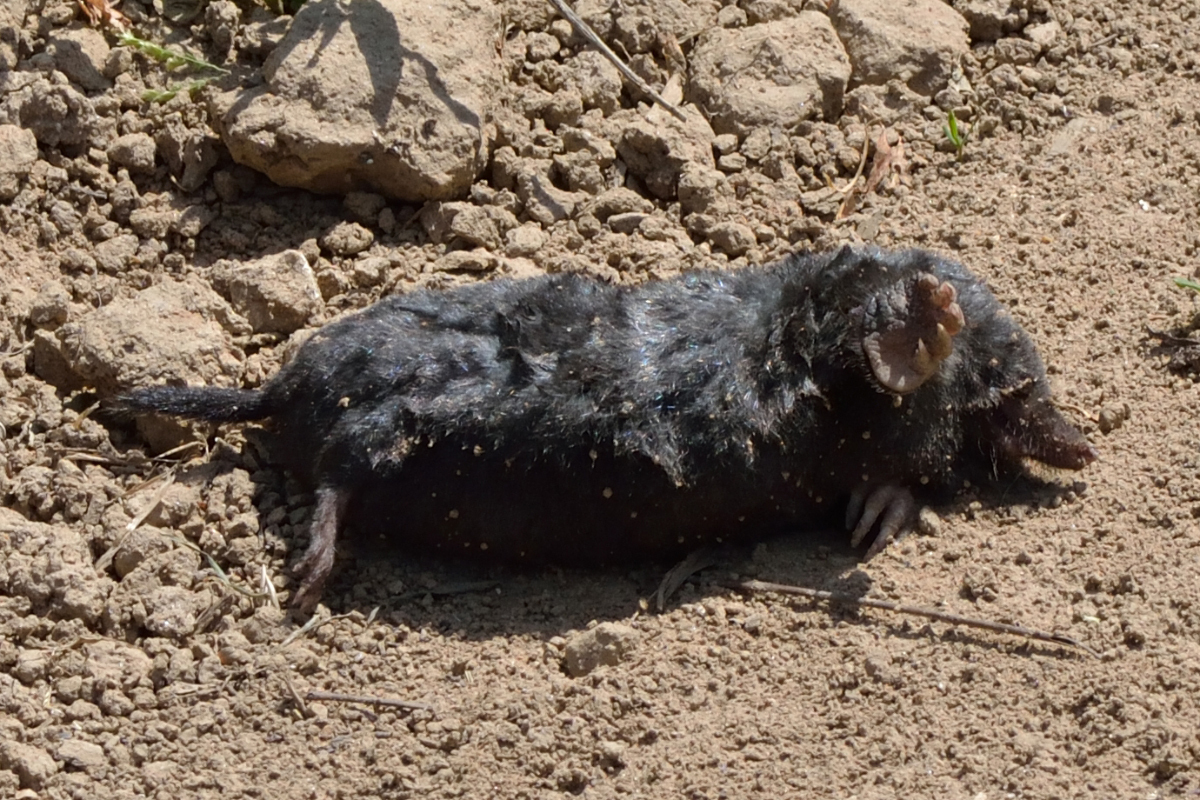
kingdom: Animalia
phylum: Chordata
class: Mammalia
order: Soricomorpha
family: Talpidae
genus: Talpa
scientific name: Talpa europaea
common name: European mole
